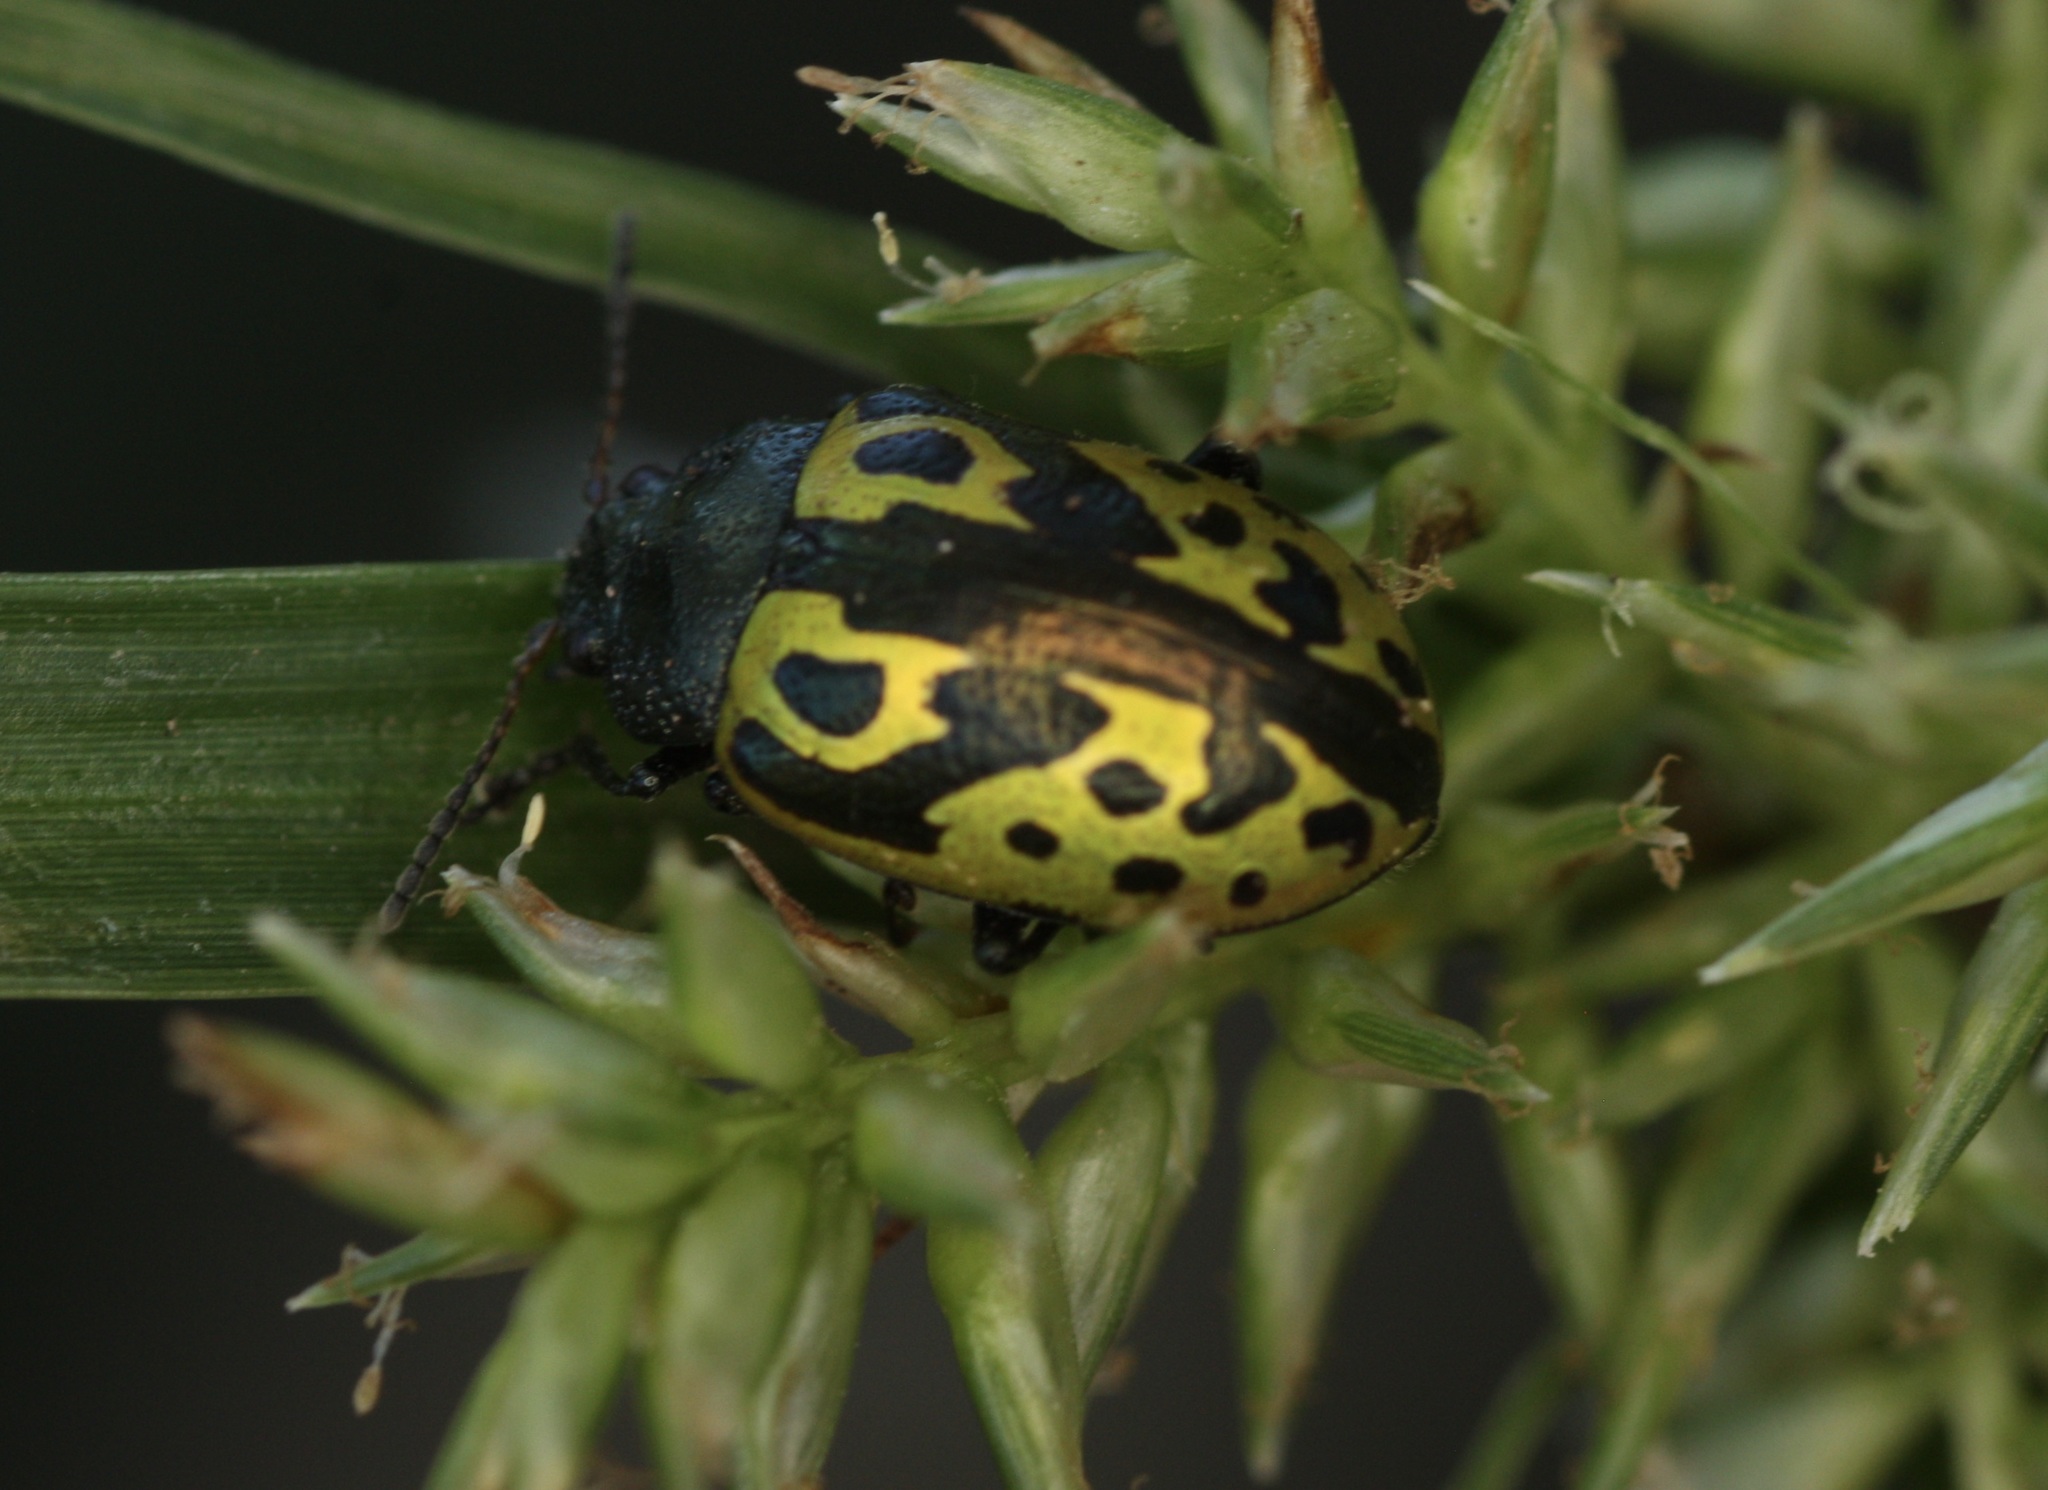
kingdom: Animalia
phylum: Arthropoda
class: Insecta
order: Coleoptera
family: Chrysomelidae
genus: Calligrapha
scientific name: Calligrapha
